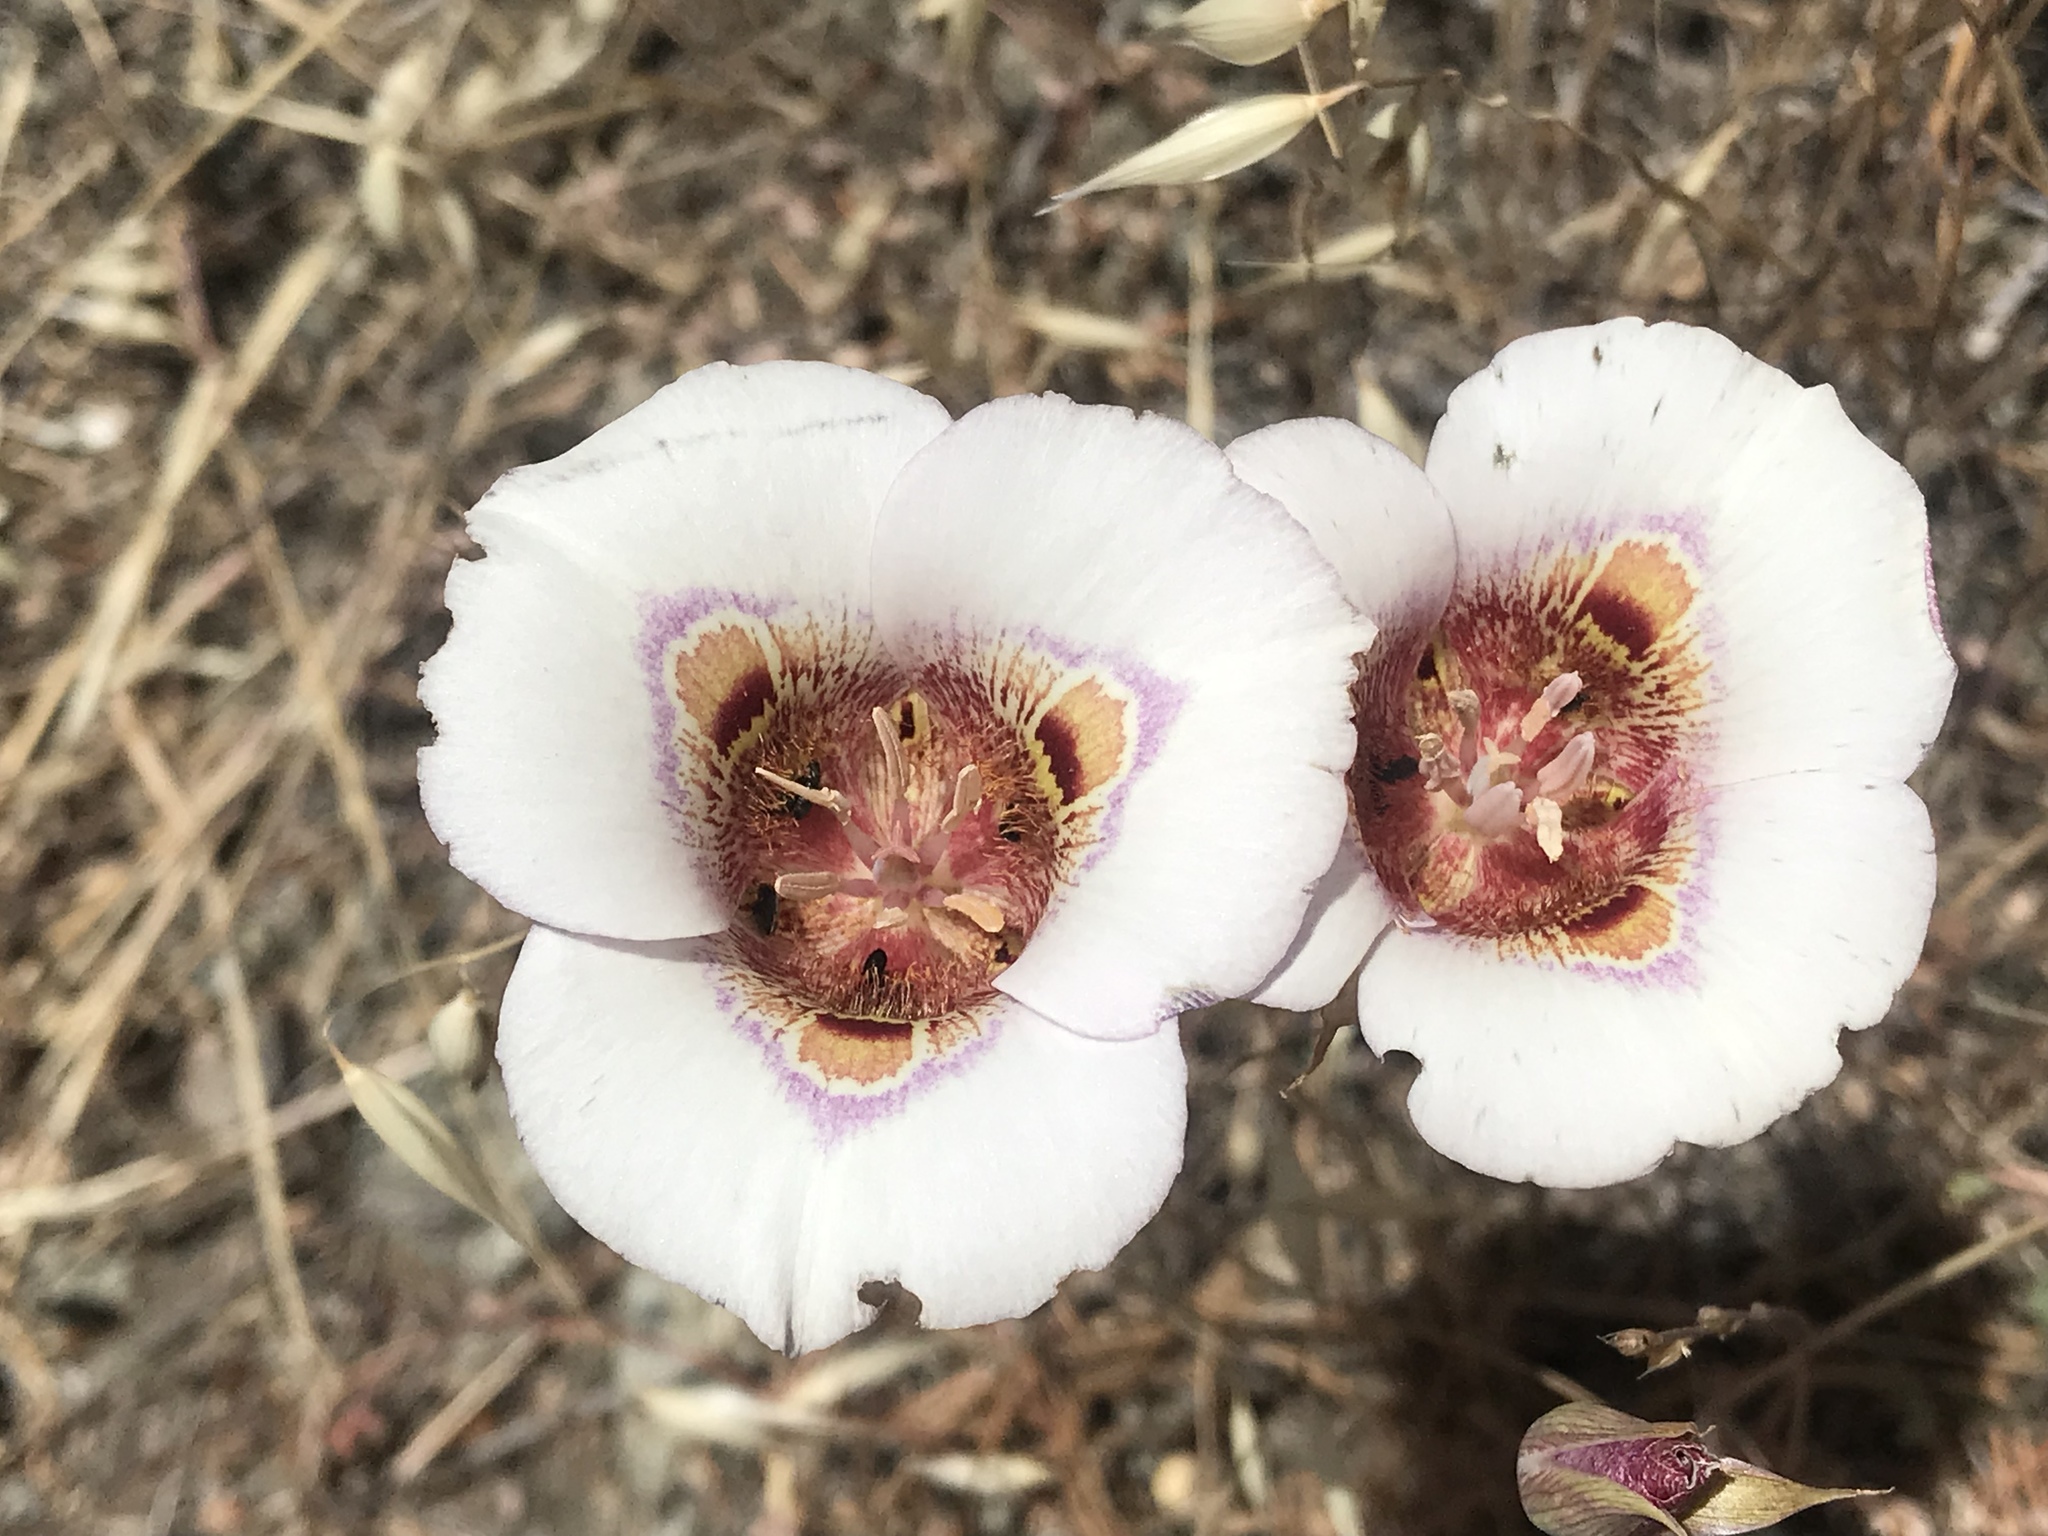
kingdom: Plantae
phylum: Tracheophyta
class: Liliopsida
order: Liliales
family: Liliaceae
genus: Calochortus
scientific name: Calochortus argillosus
